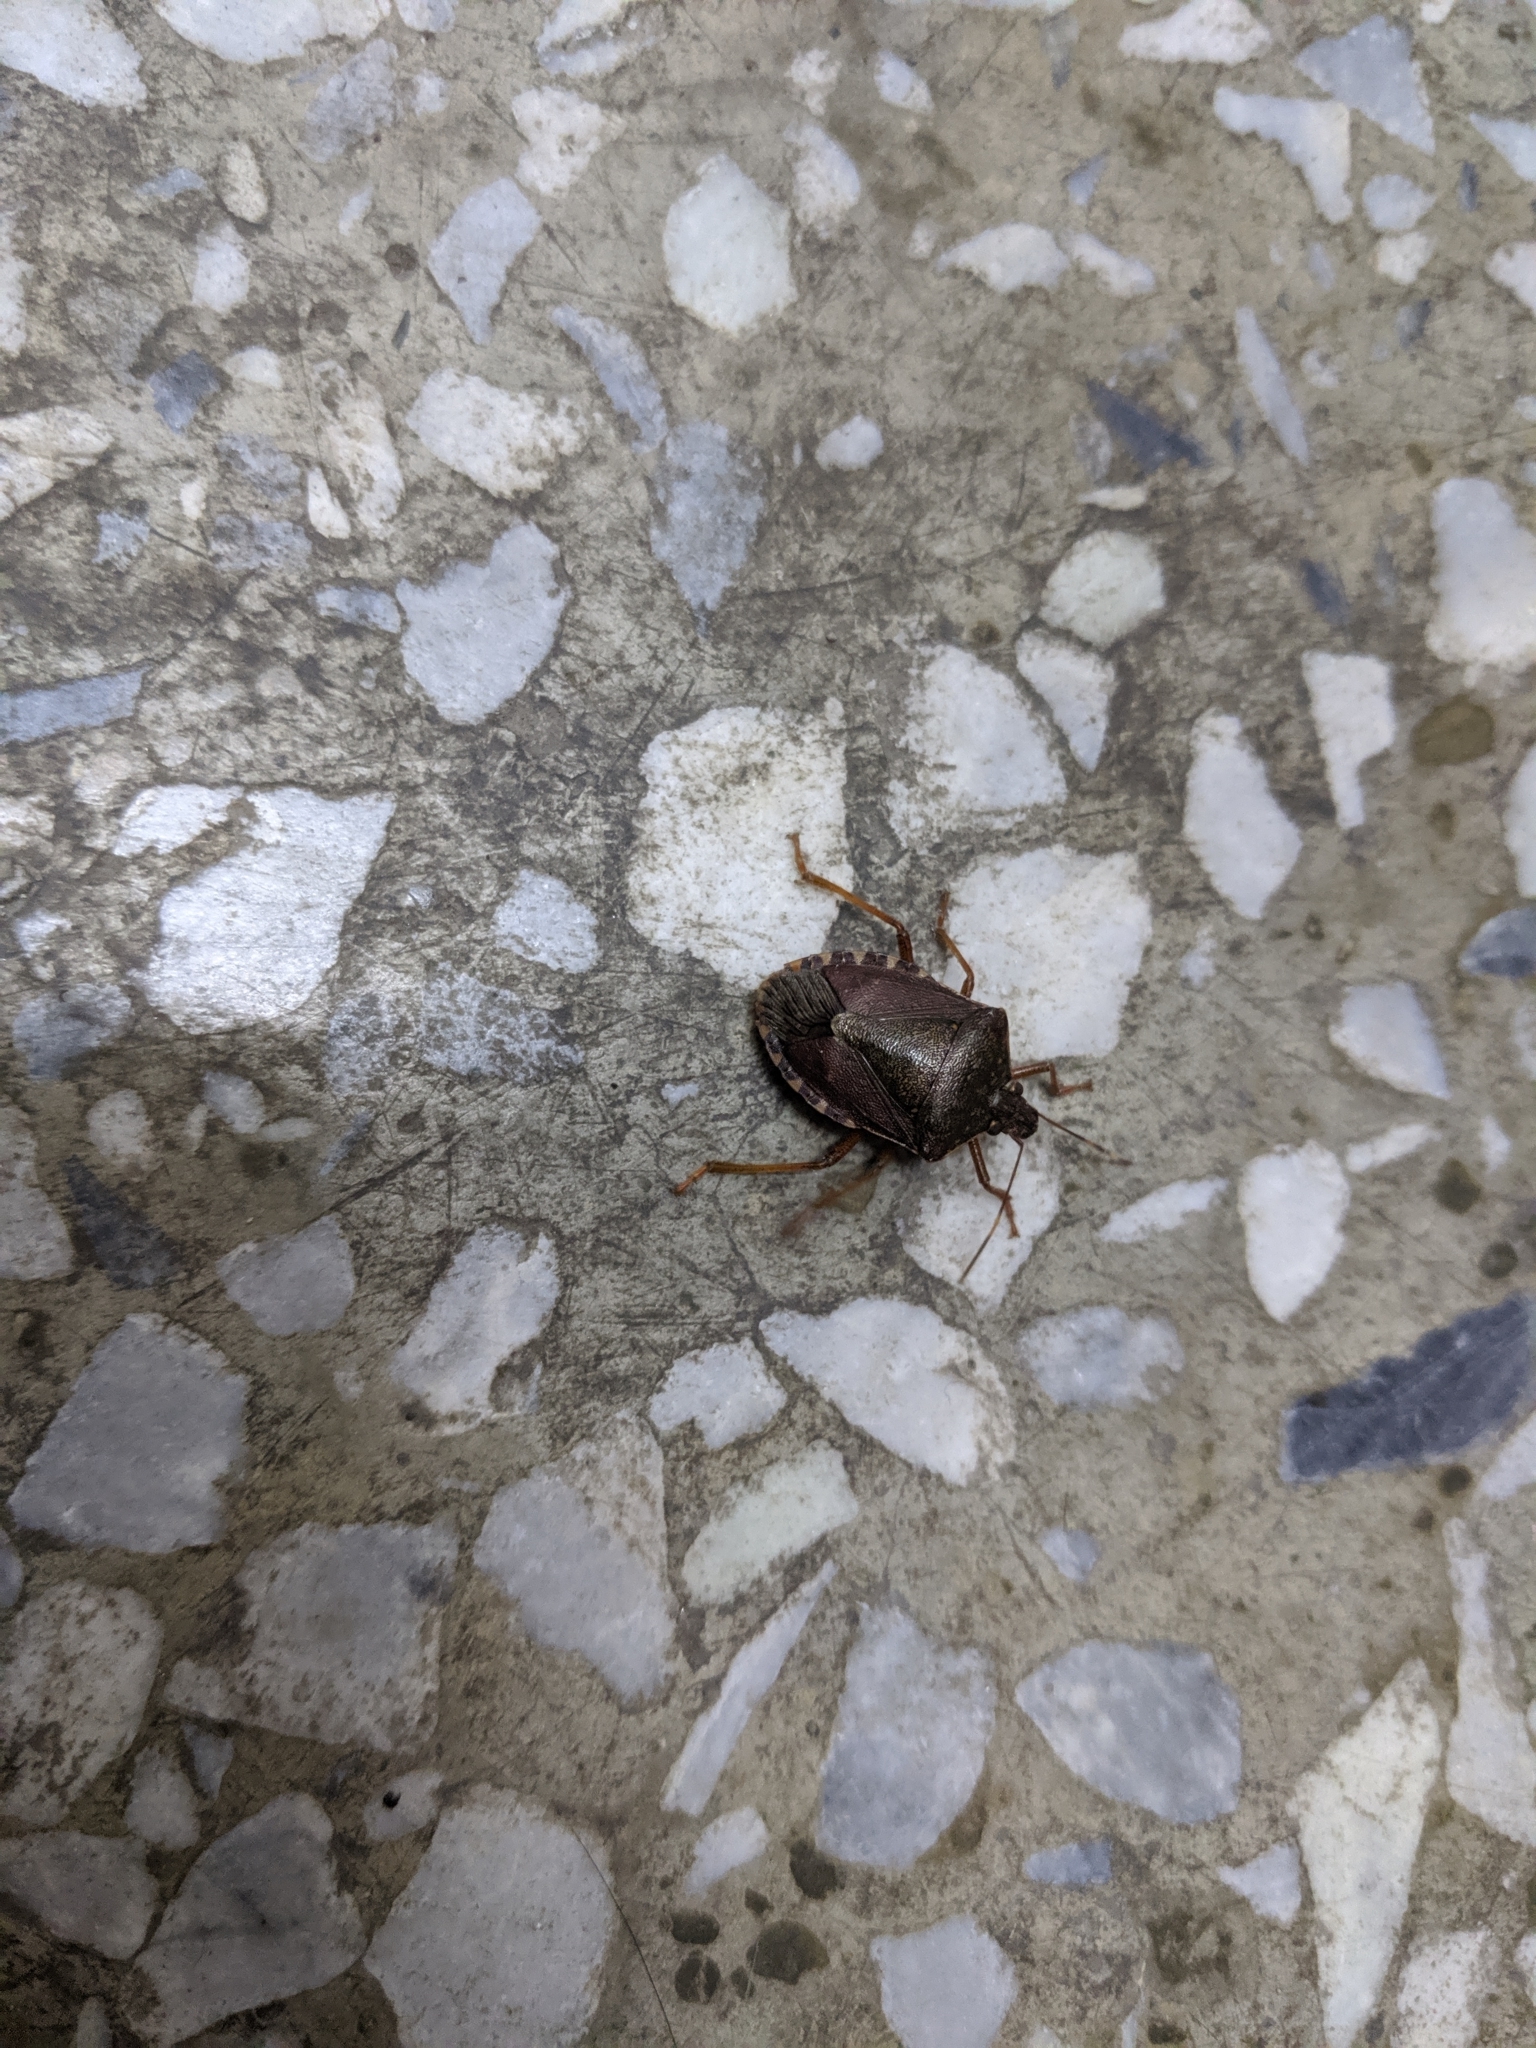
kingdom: Animalia
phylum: Arthropoda
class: Insecta
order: Hemiptera
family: Pentatomidae
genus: Halyomorpha
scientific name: Halyomorpha halys
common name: Brown marmorated stink bug
